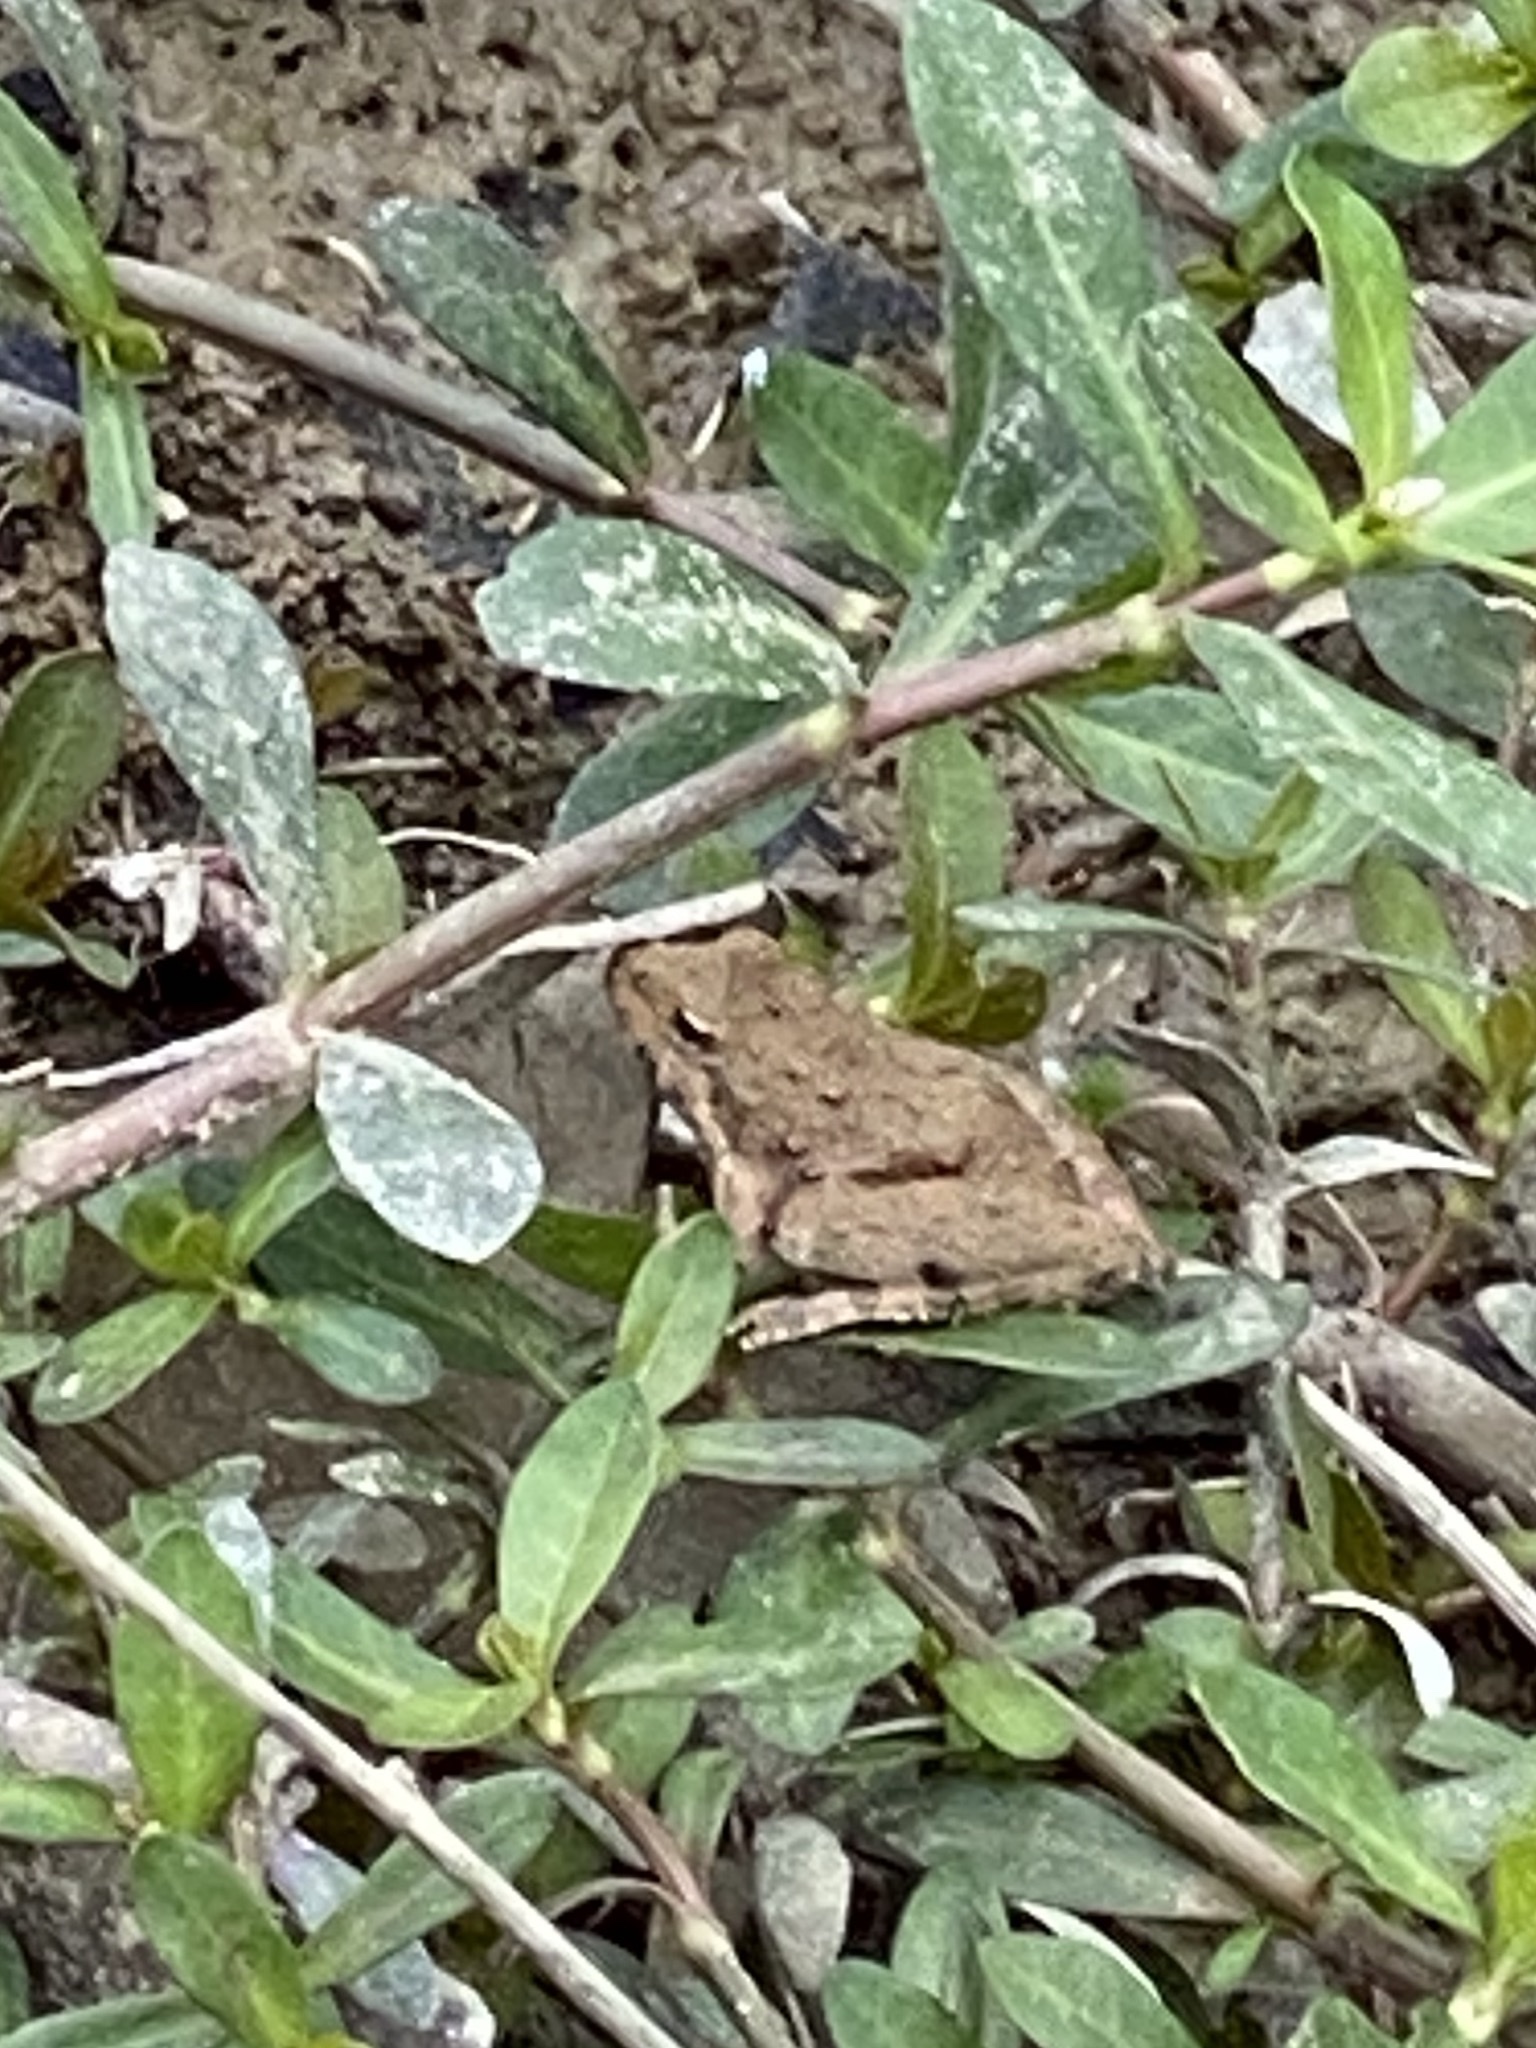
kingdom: Animalia
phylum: Chordata
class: Amphibia
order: Anura
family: Hylidae
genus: Acris
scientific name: Acris blanchardi
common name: Blanchard's cricket frog
